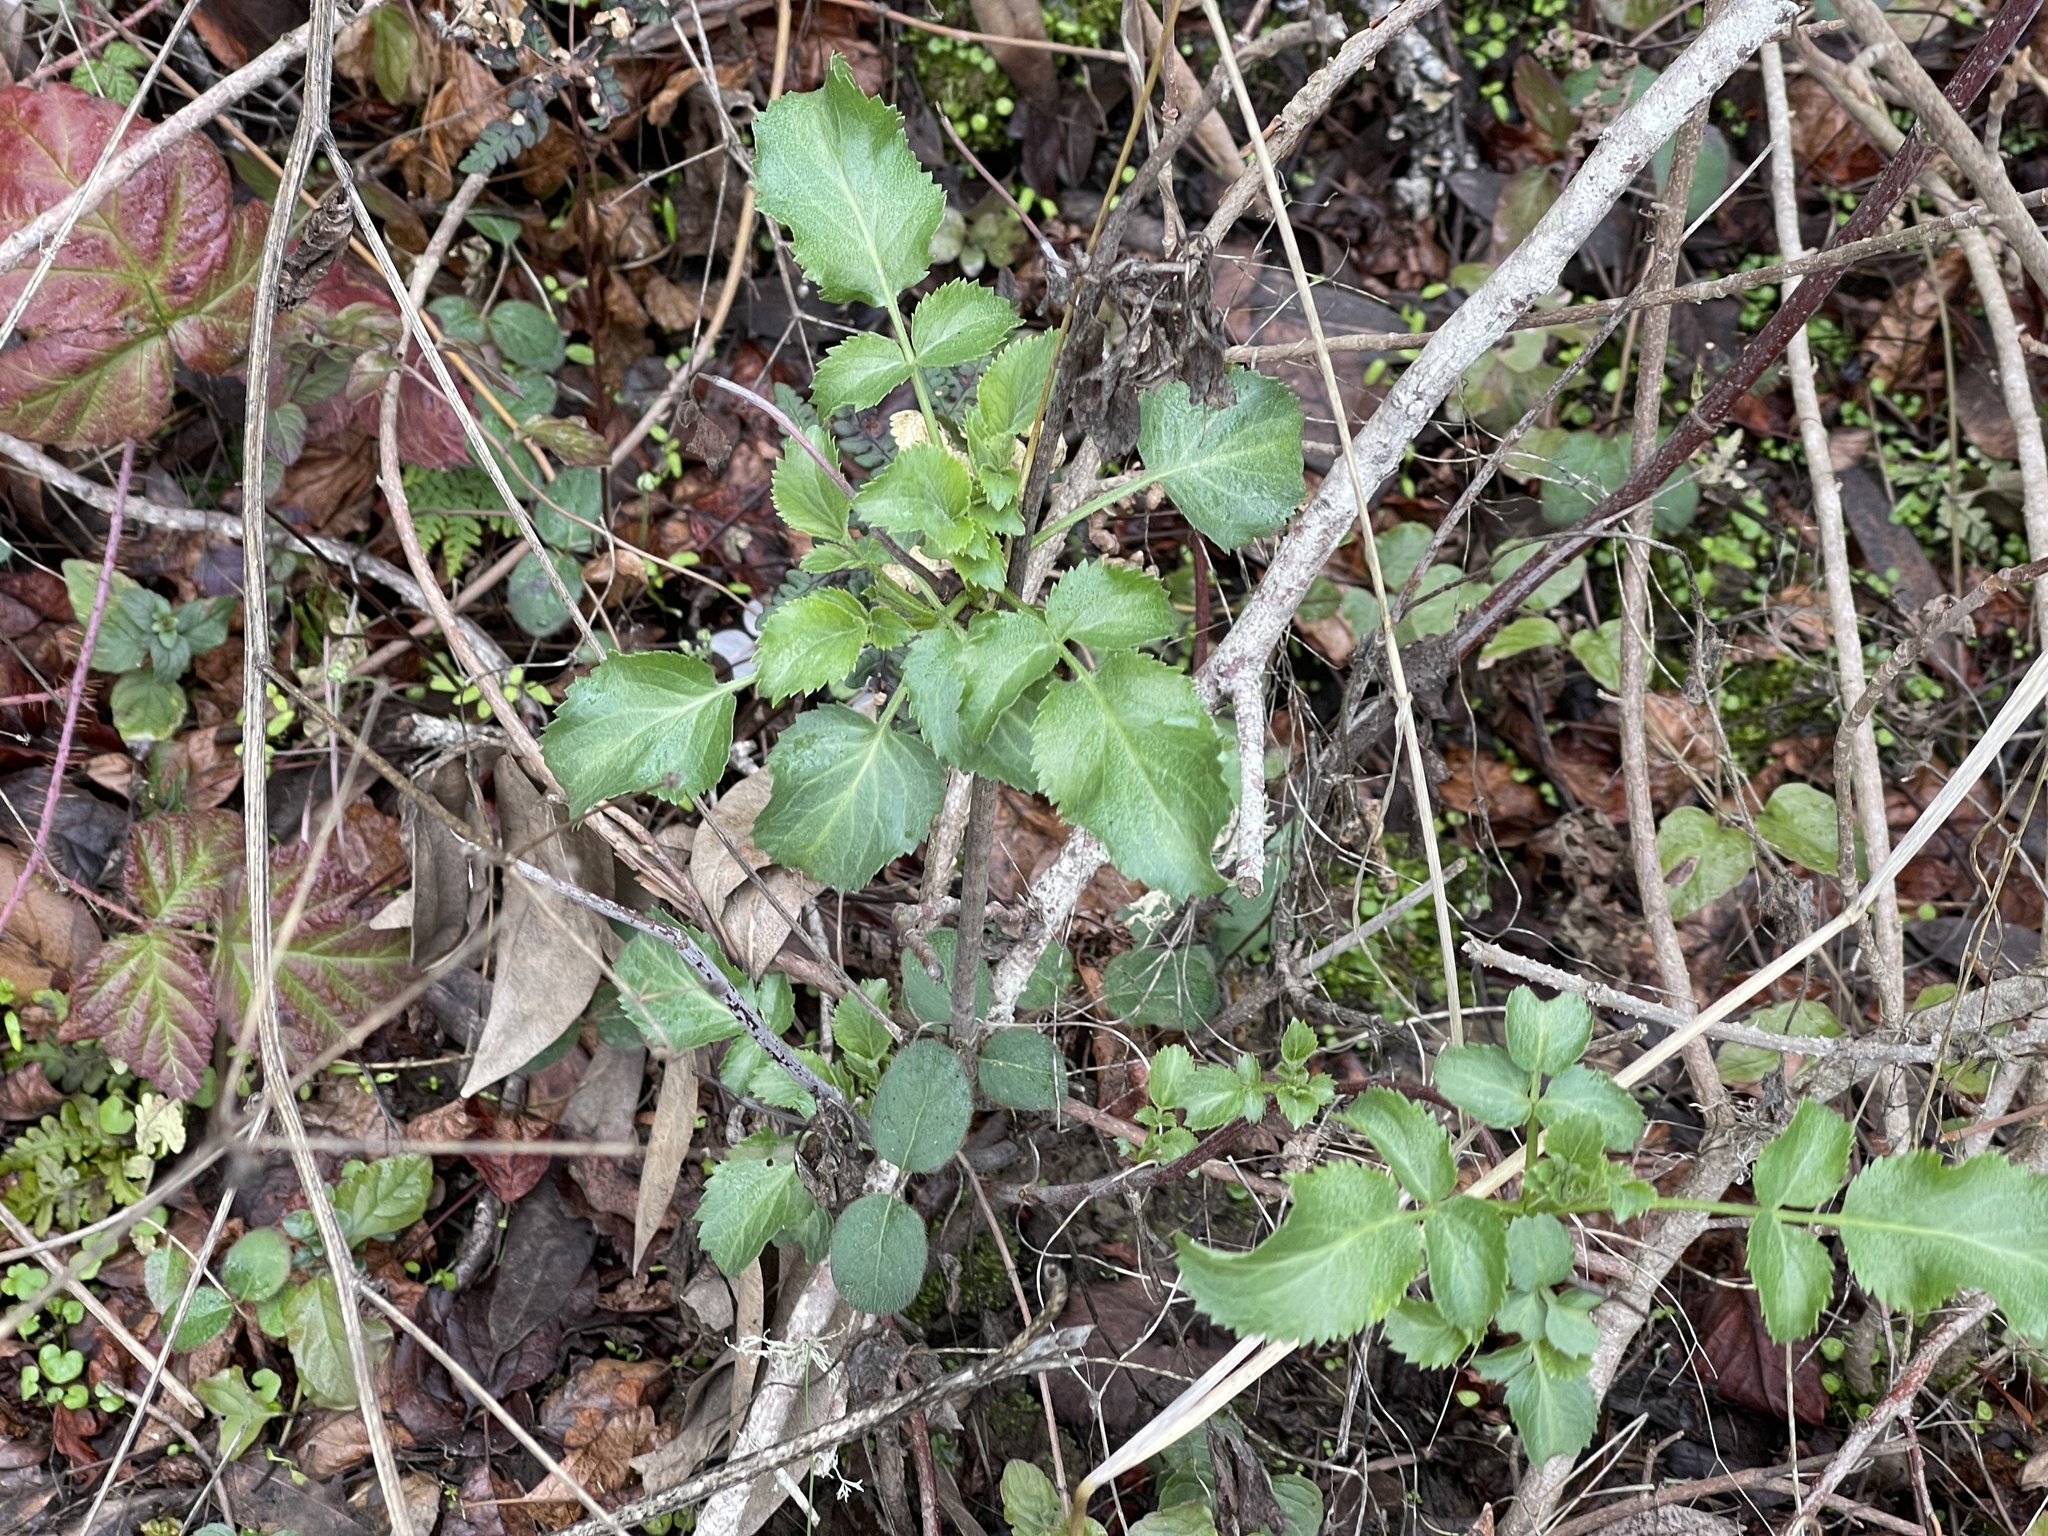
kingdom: Plantae
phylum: Tracheophyta
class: Magnoliopsida
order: Dipsacales
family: Viburnaceae
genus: Sambucus
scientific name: Sambucus cerulea
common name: Blue elder
